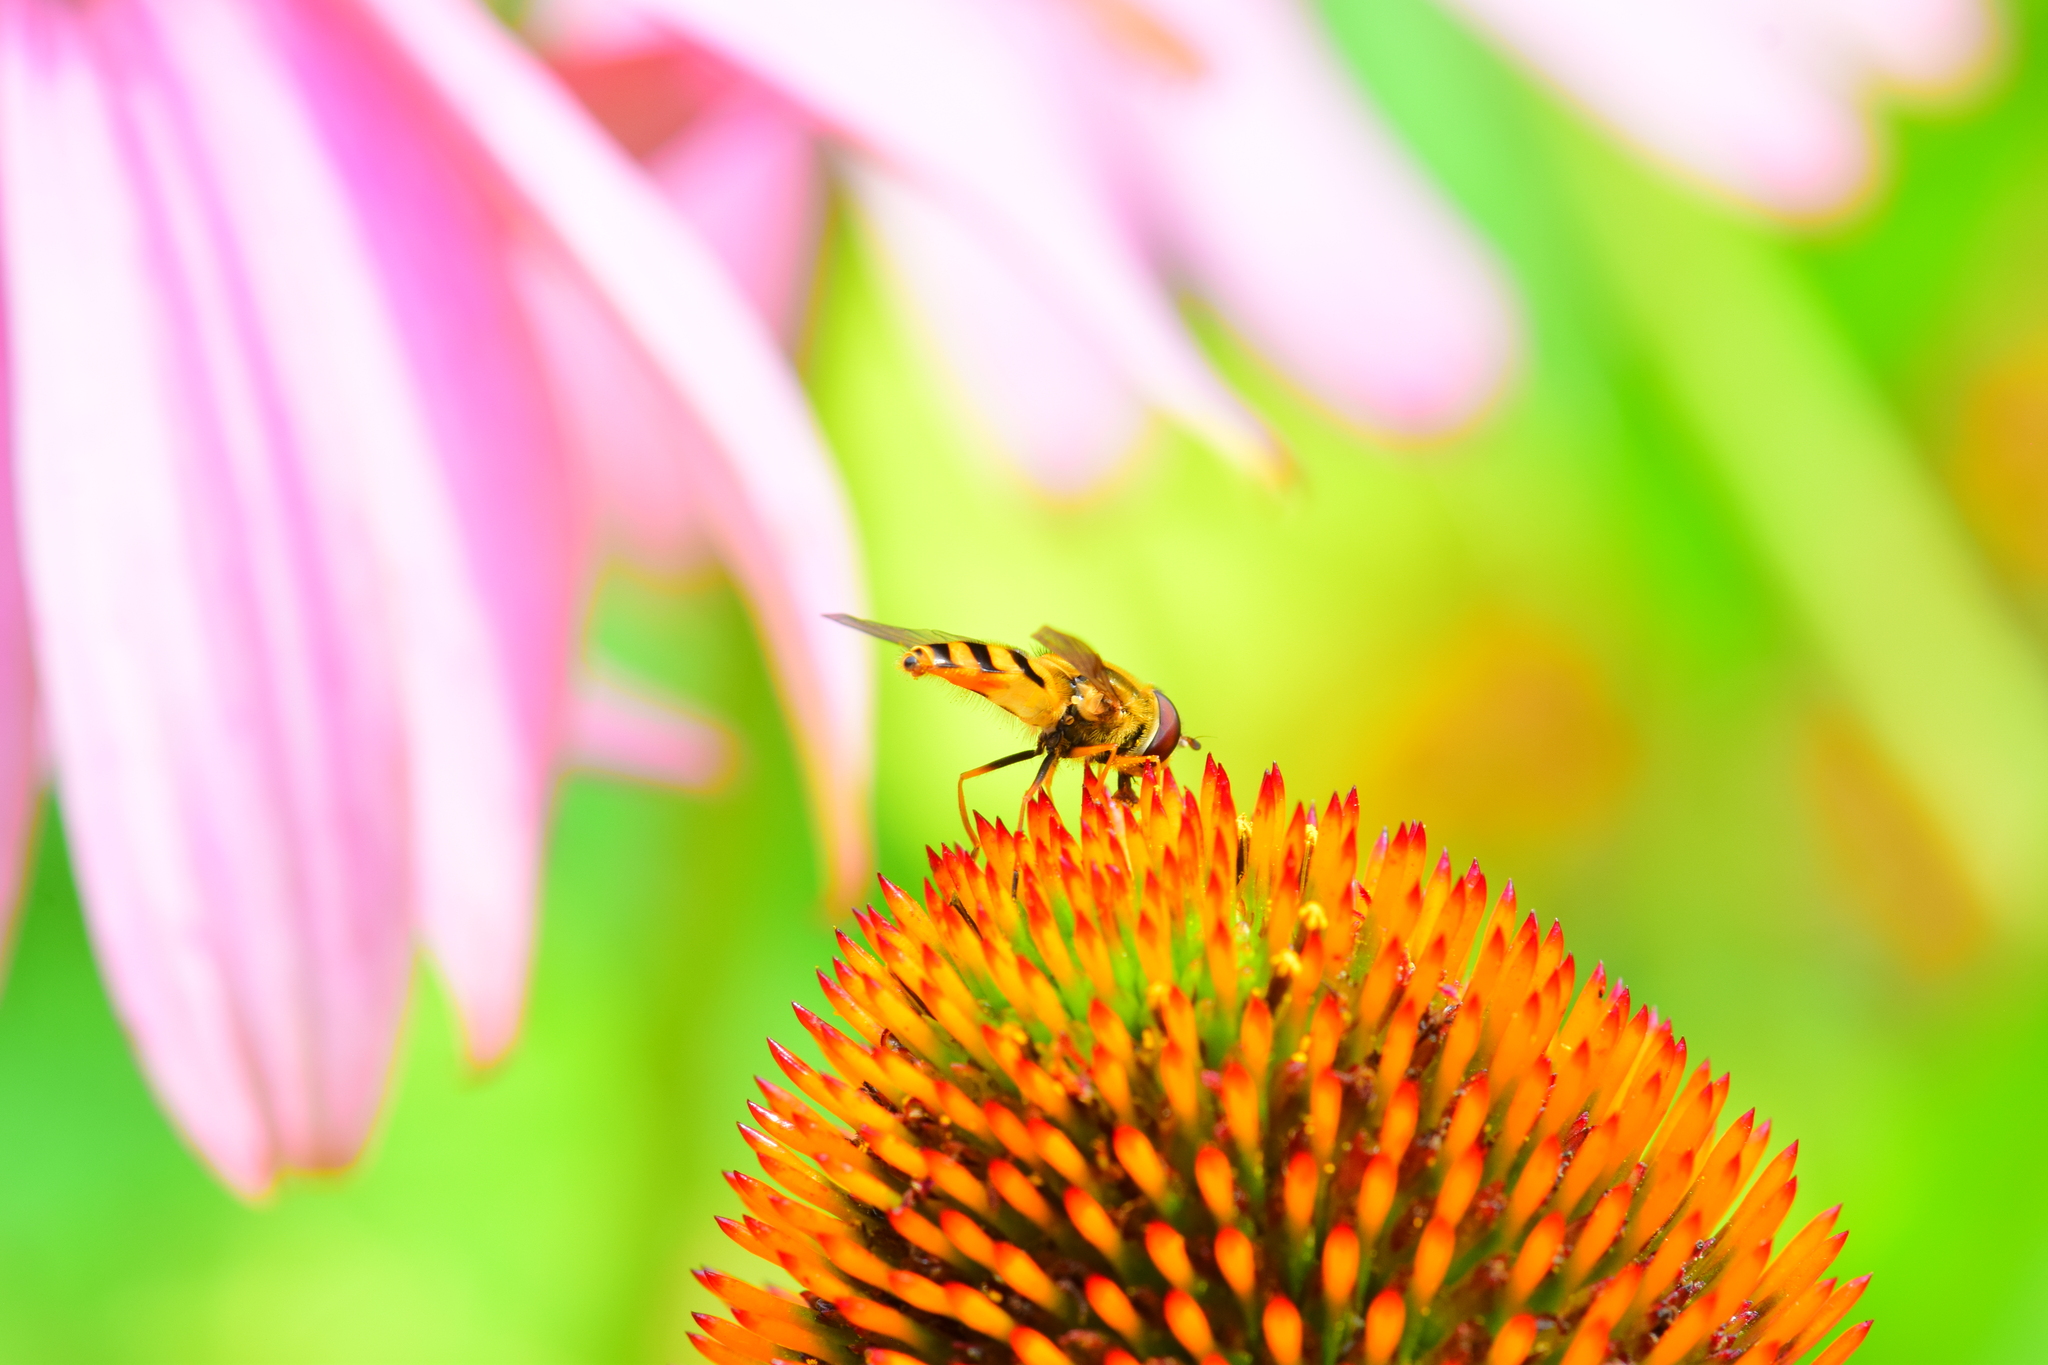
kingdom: Animalia
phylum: Arthropoda
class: Insecta
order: Diptera
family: Syrphidae
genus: Syrphus
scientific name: Syrphus
